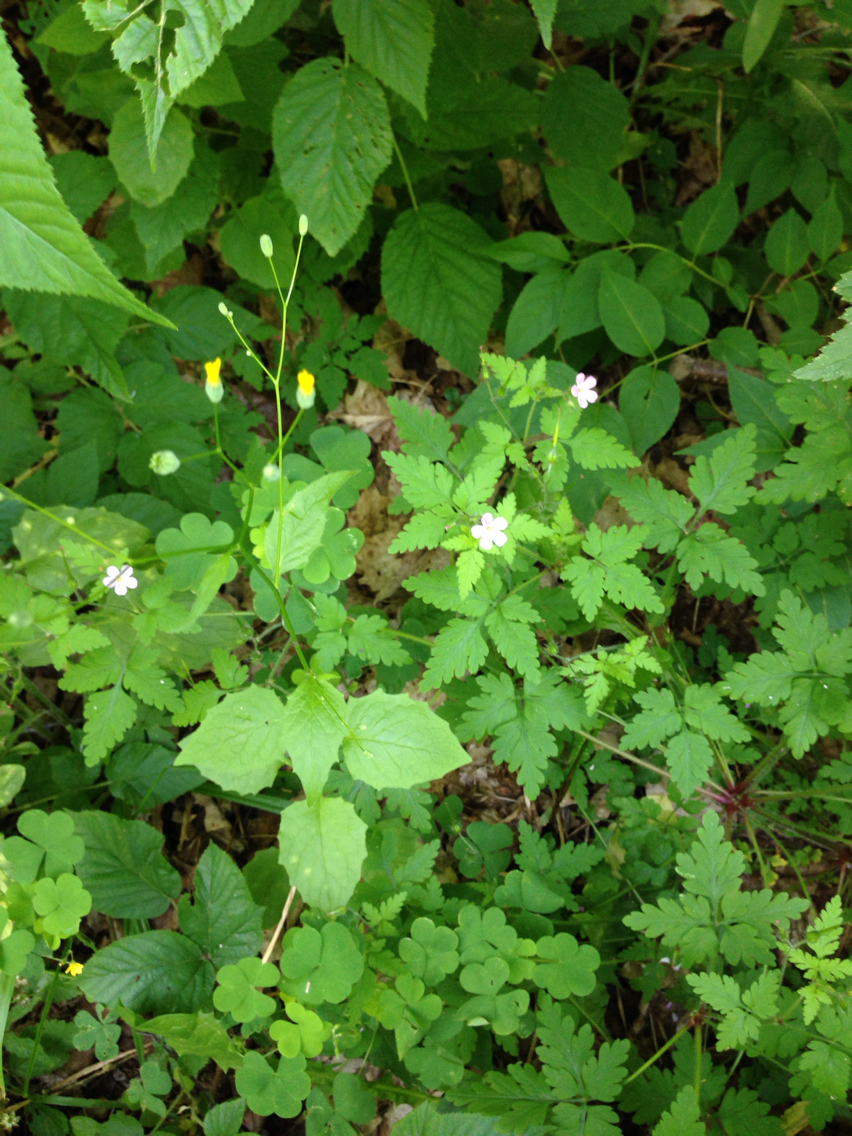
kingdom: Plantae
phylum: Tracheophyta
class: Magnoliopsida
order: Geraniales
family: Geraniaceae
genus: Geranium
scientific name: Geranium robertianum
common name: Herb-robert
